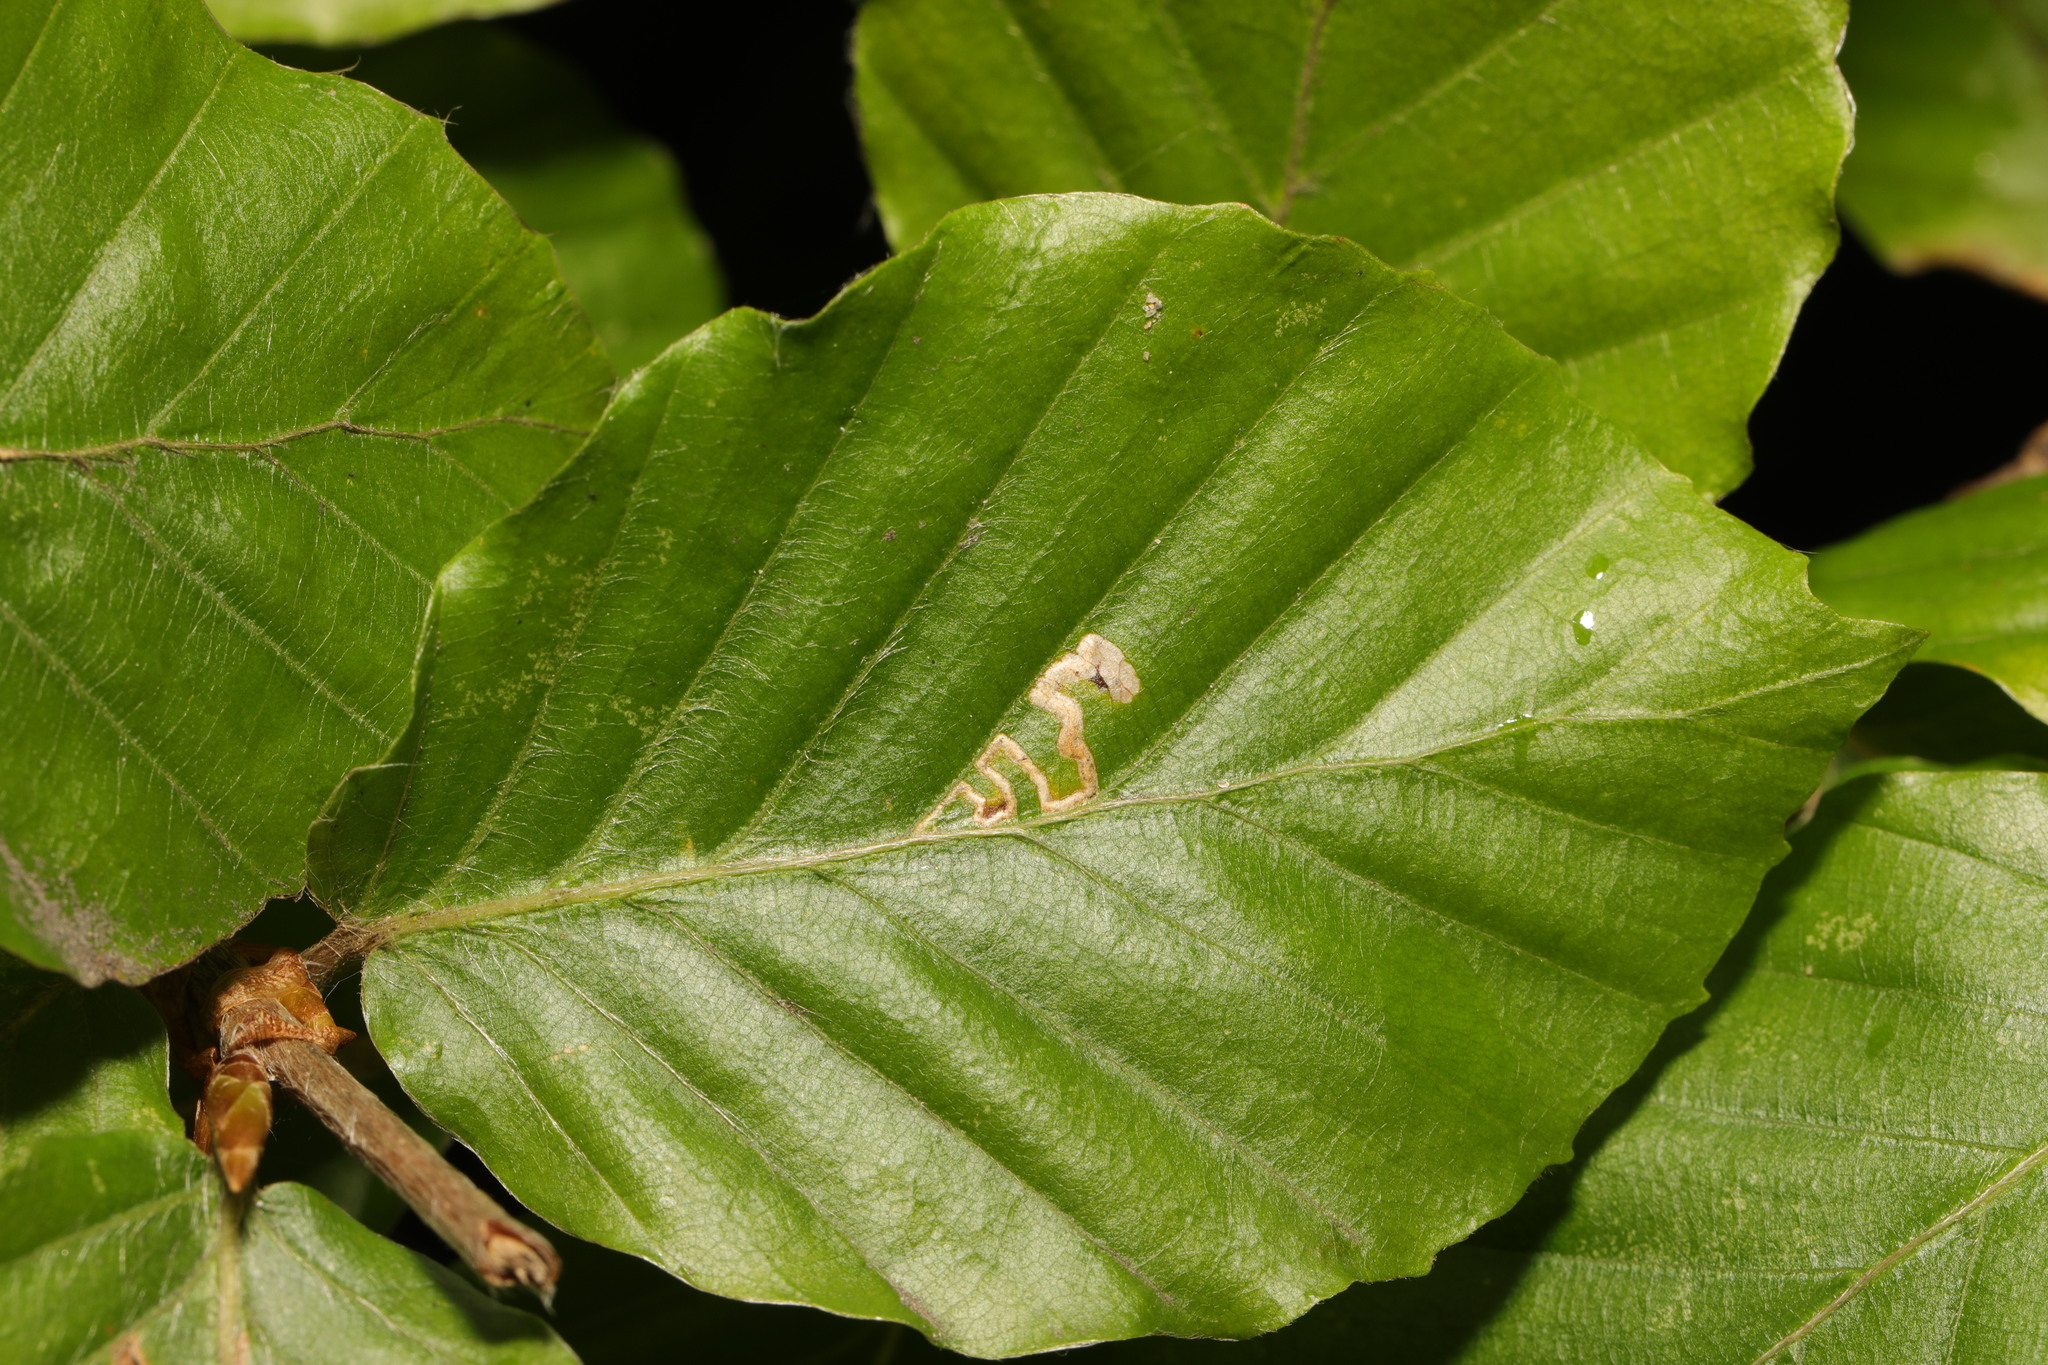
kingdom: Animalia
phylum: Arthropoda
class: Insecta
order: Lepidoptera
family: Nepticulidae
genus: Stigmella
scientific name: Stigmella tityrella
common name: Small beech pigmy
